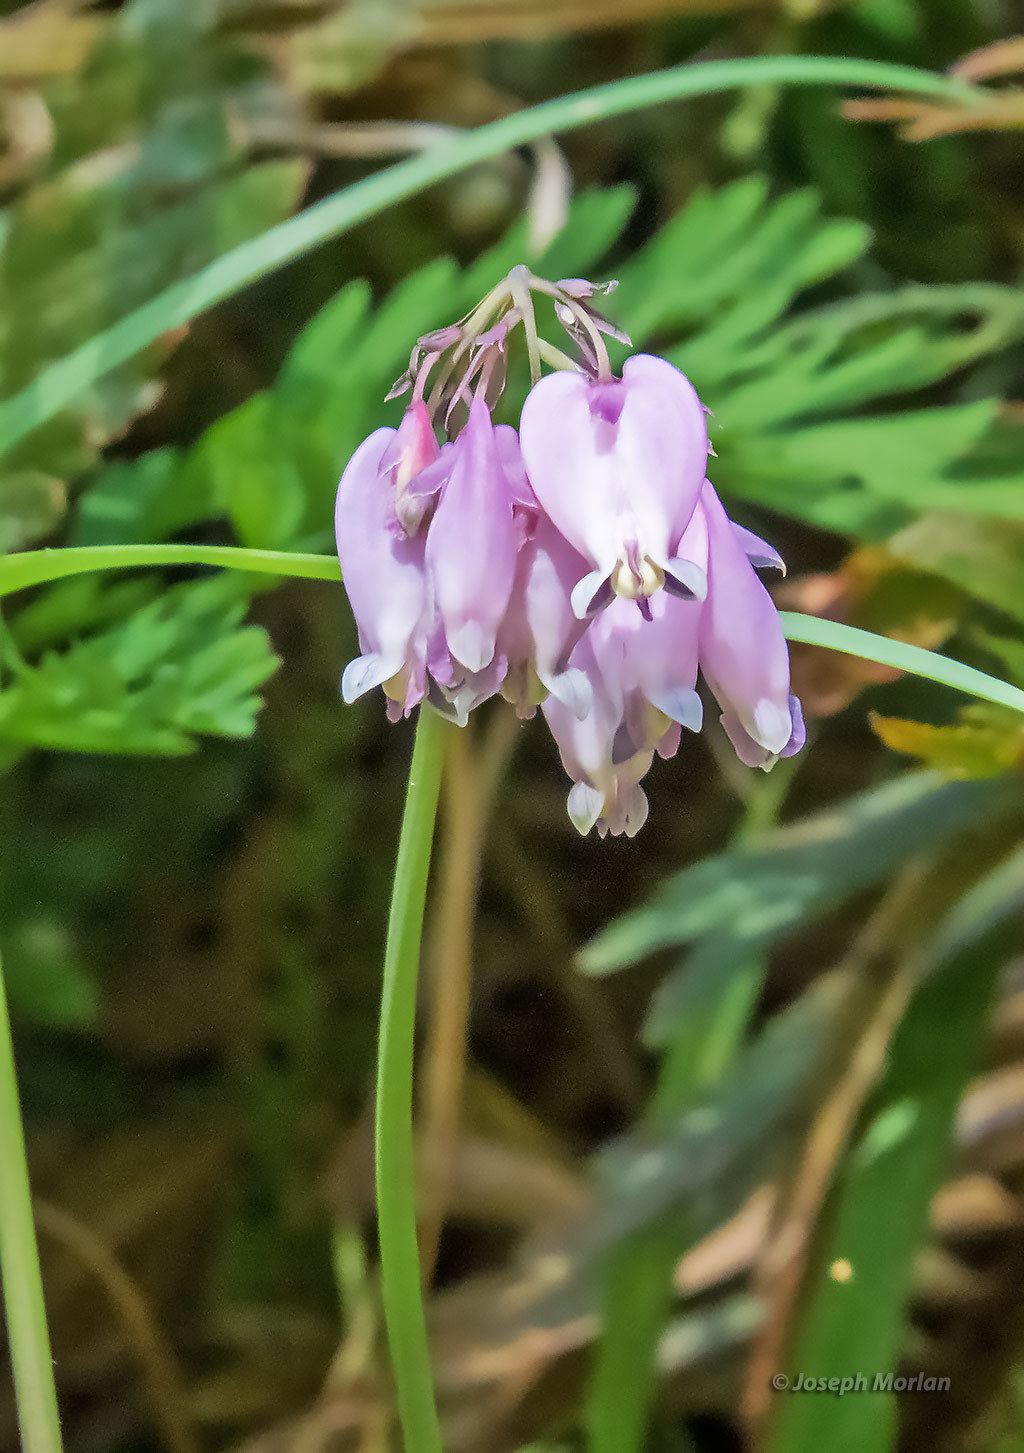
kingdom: Plantae
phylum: Tracheophyta
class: Magnoliopsida
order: Ranunculales
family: Papaveraceae
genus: Dicentra
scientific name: Dicentra formosa
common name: Bleeding-heart
